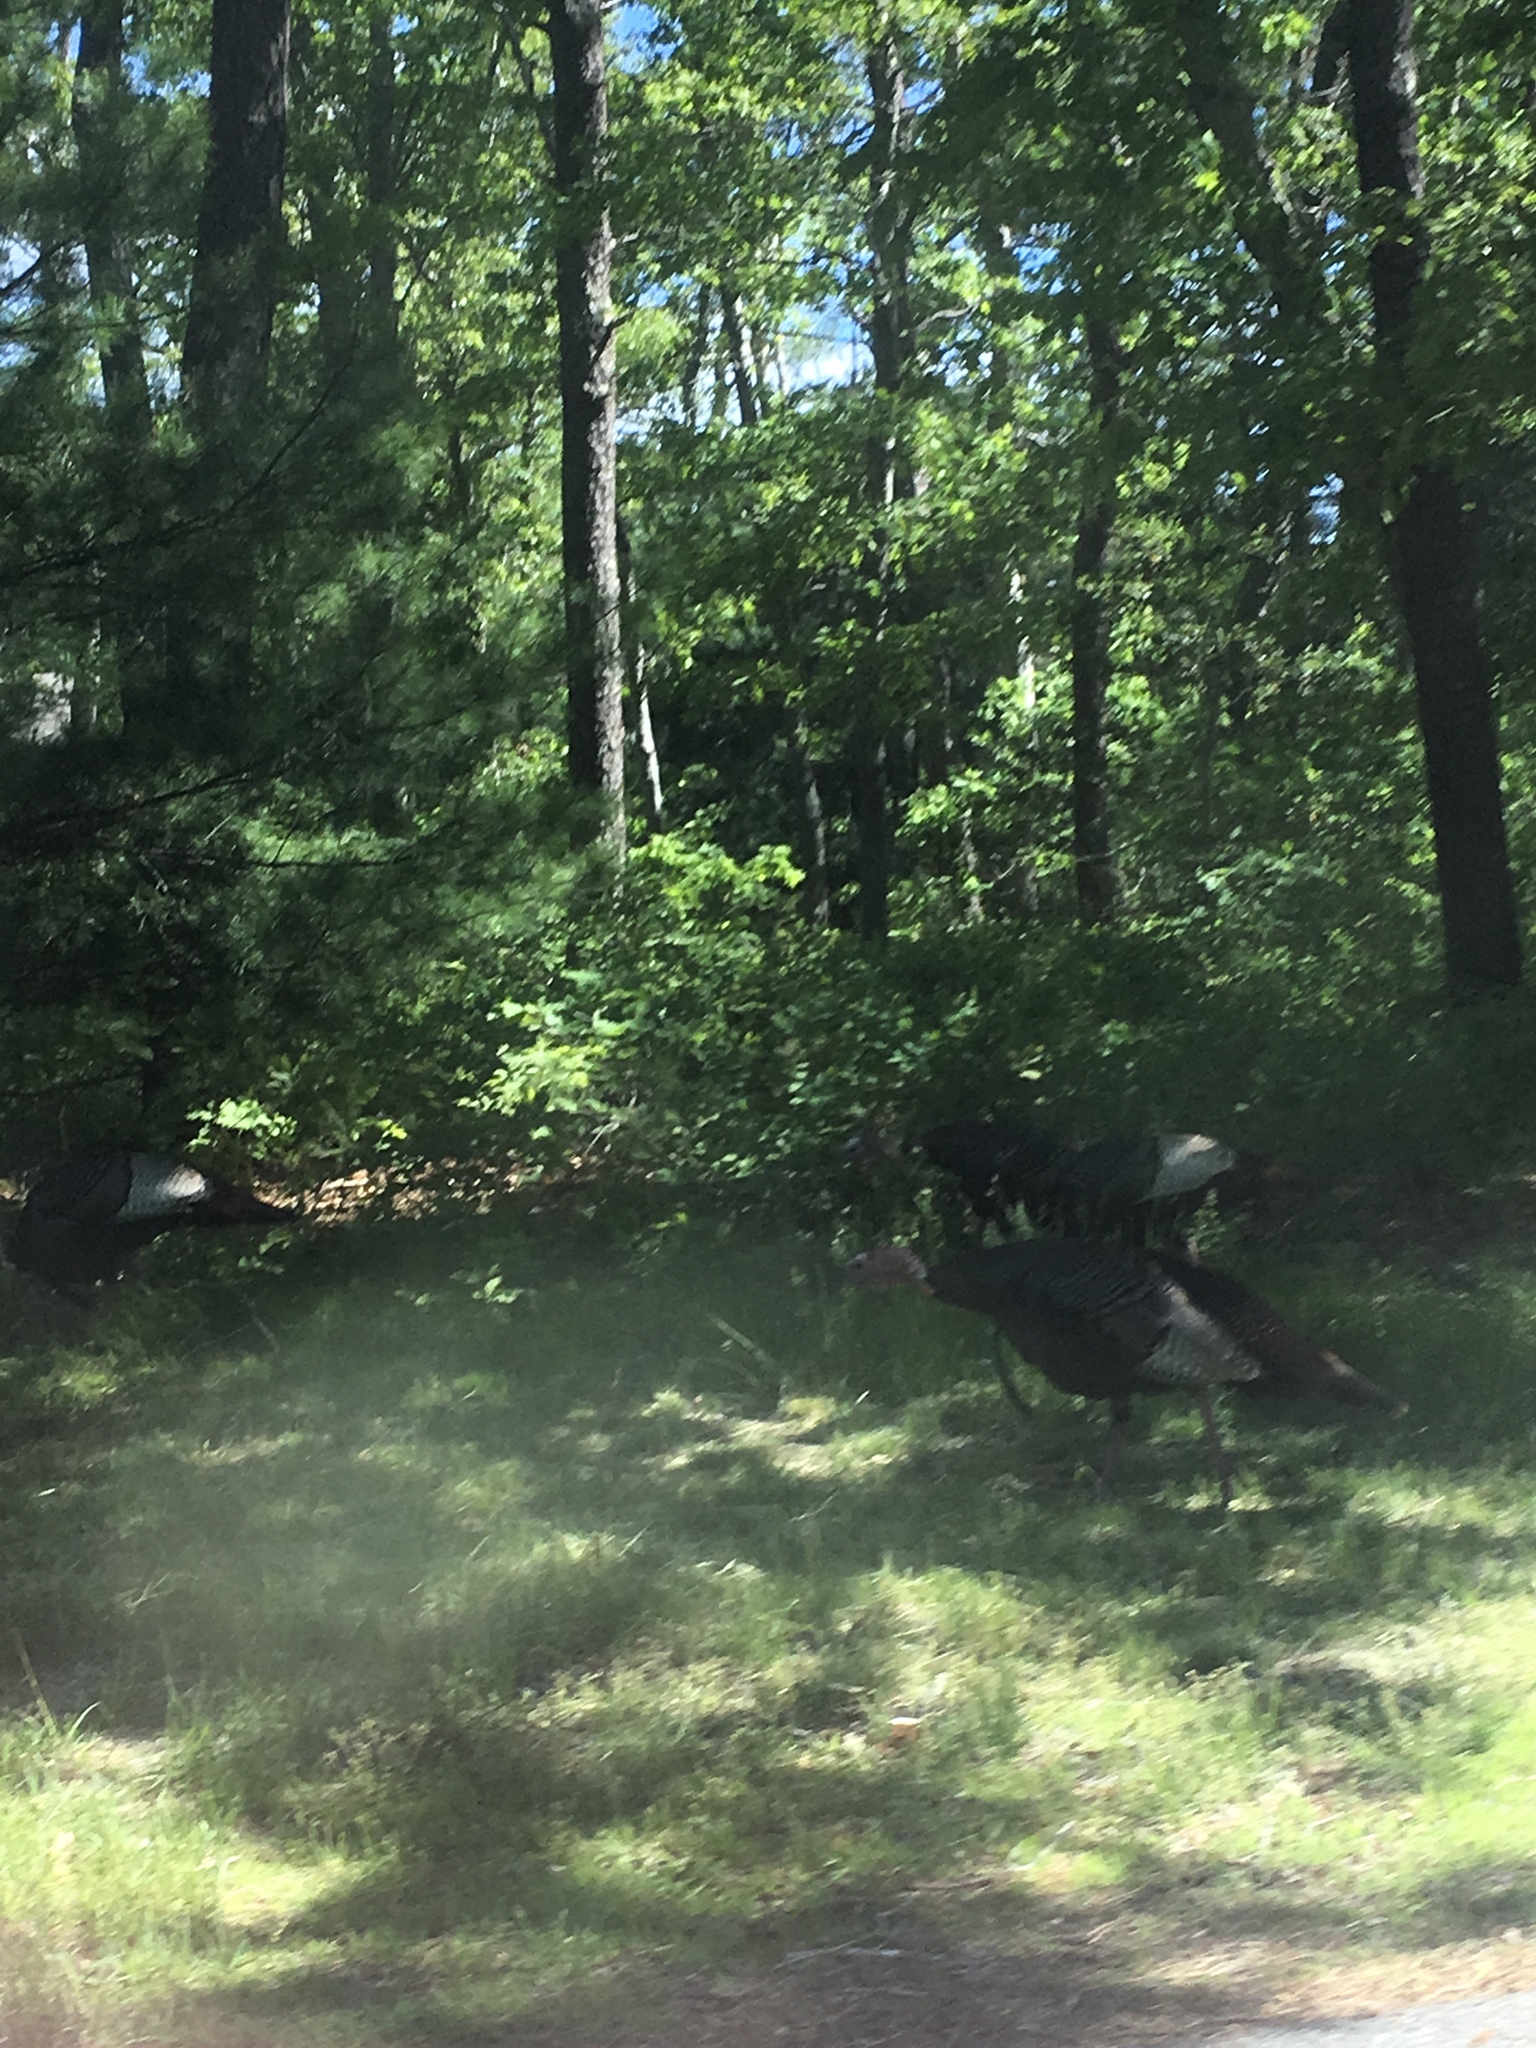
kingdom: Animalia
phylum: Chordata
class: Aves
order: Galliformes
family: Phasianidae
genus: Meleagris
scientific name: Meleagris gallopavo
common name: Wild turkey
